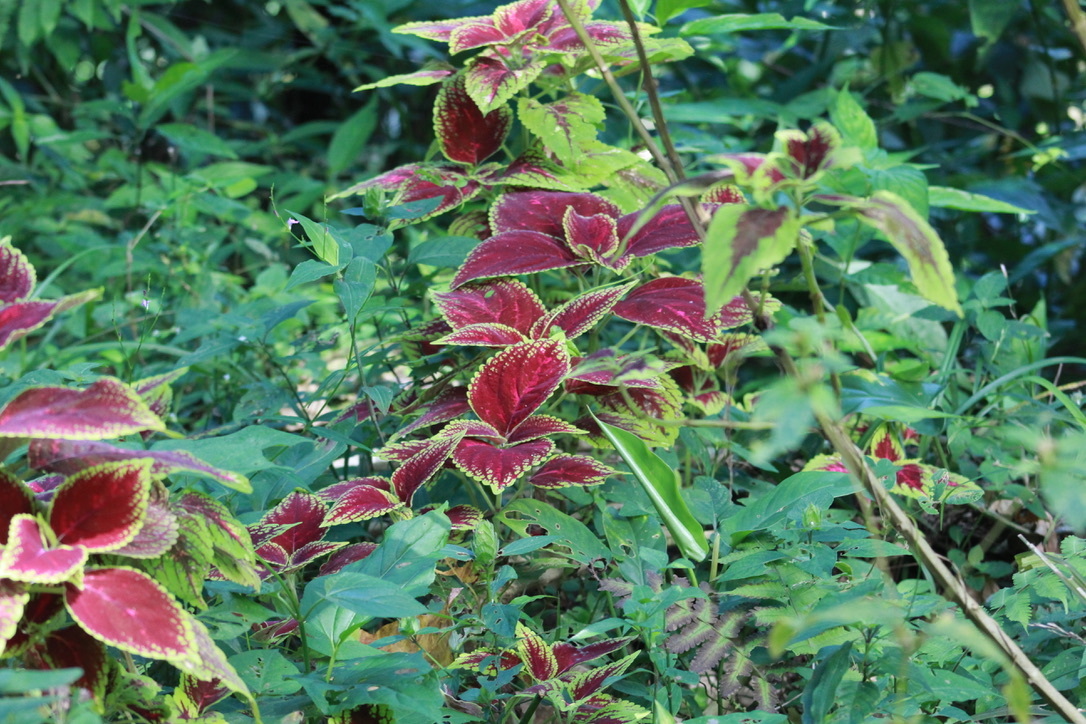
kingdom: Plantae
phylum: Tracheophyta
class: Magnoliopsida
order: Lamiales
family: Lamiaceae
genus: Coleus
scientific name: Coleus scutellarioides
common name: Coleus
